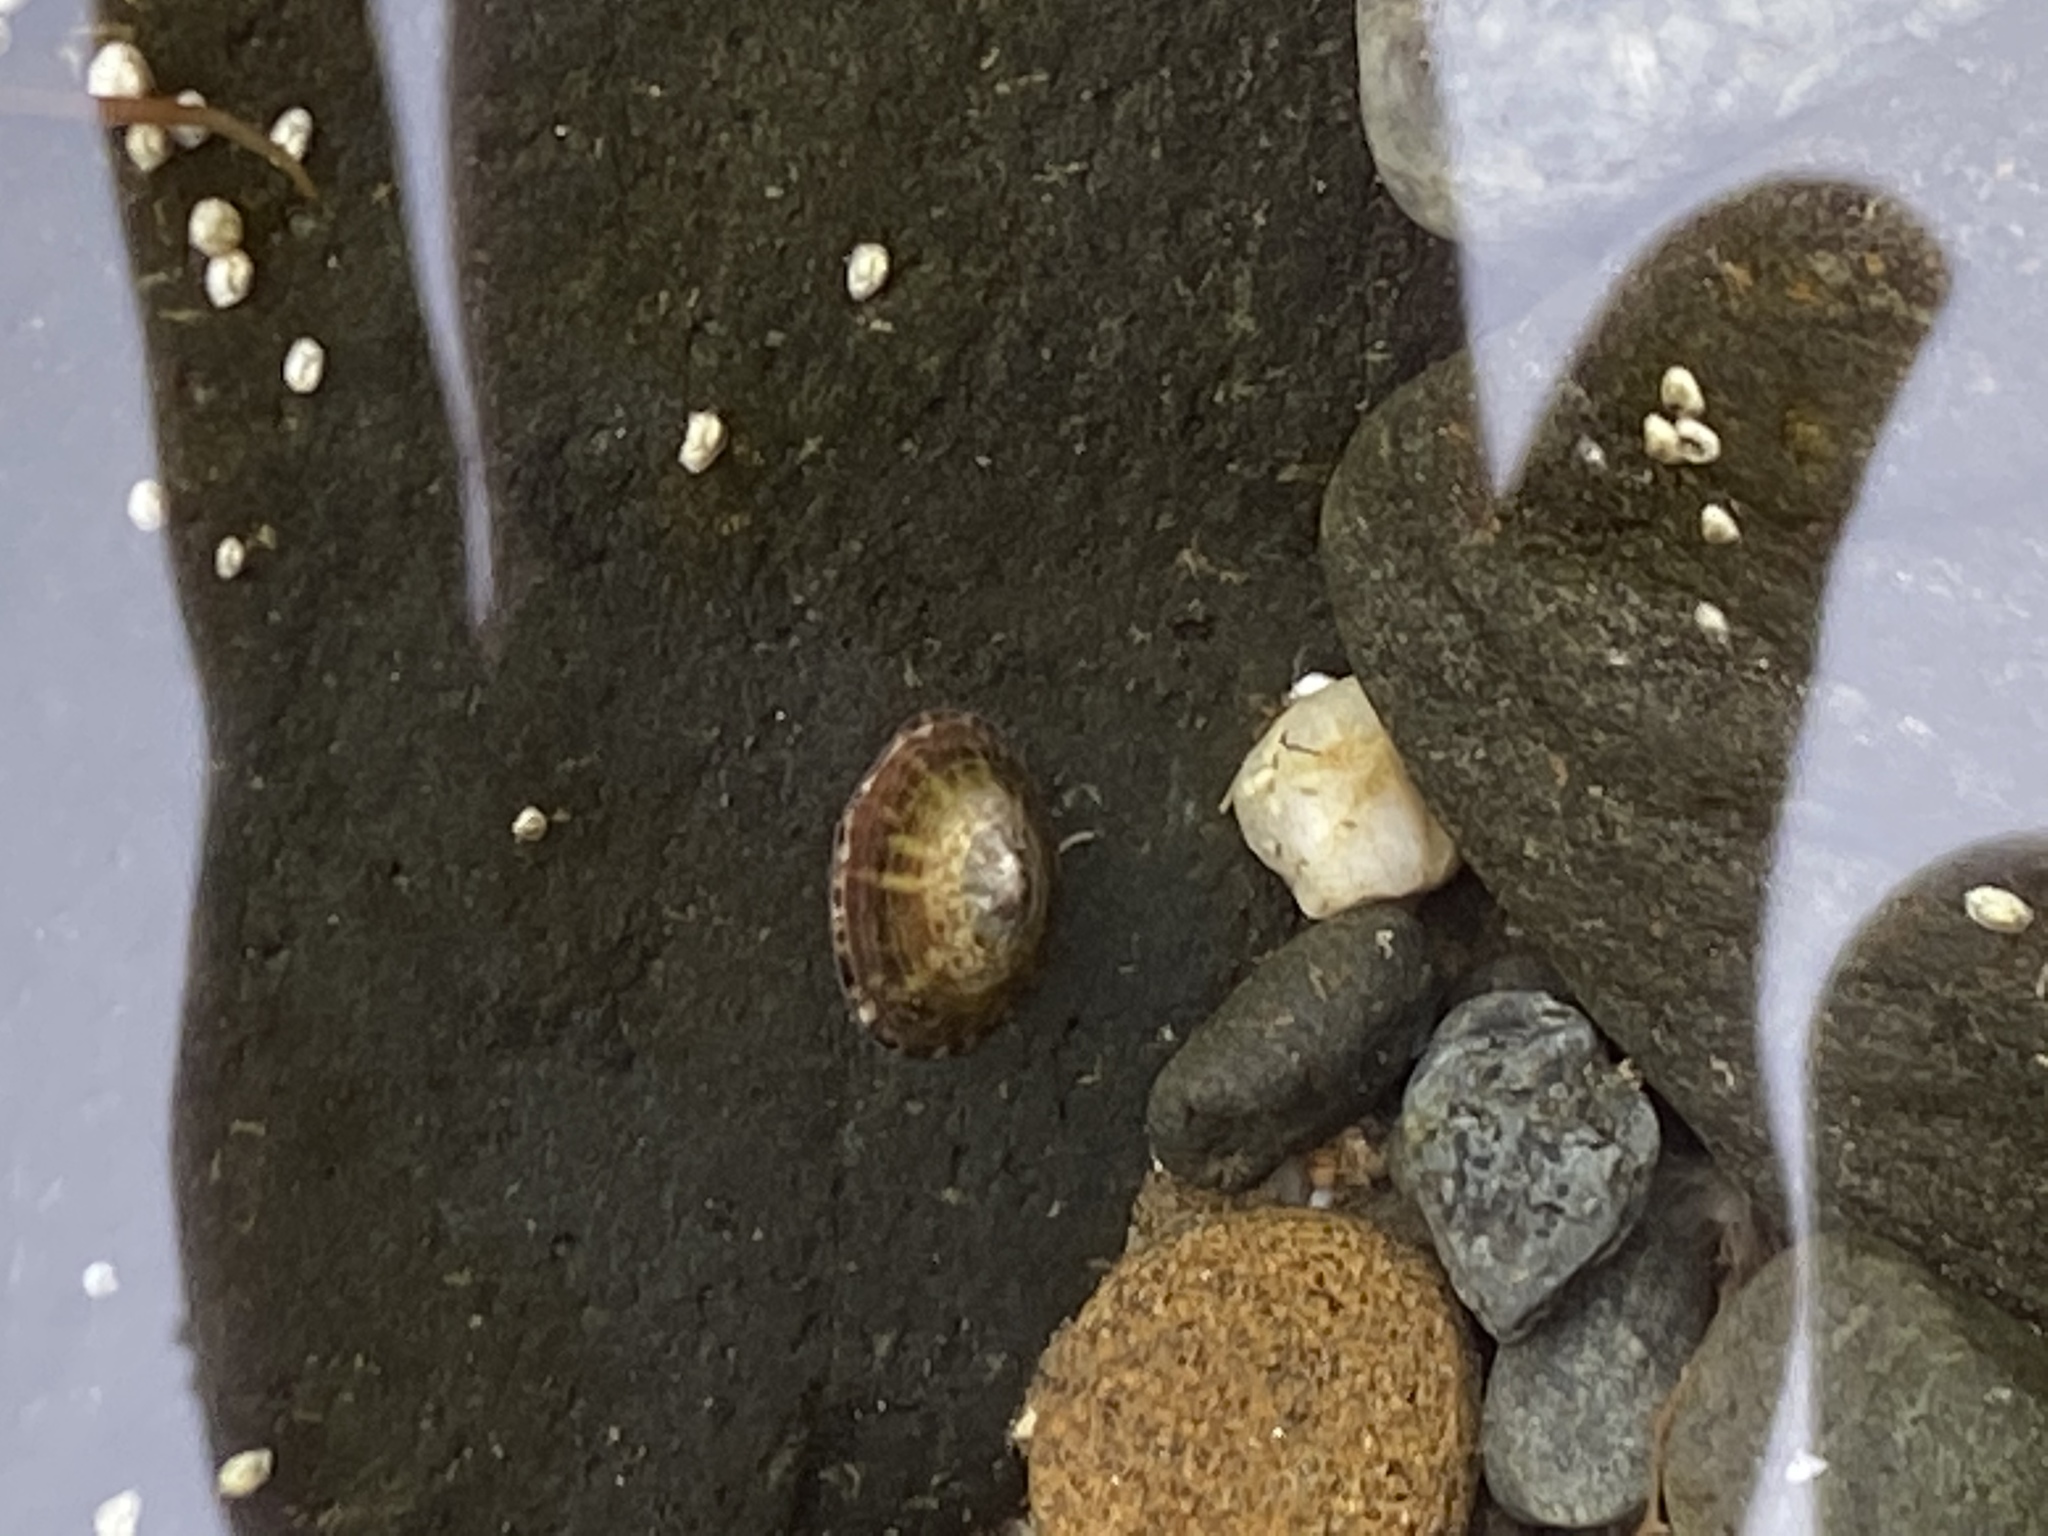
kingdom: Animalia
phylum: Mollusca
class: Gastropoda
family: Lottiidae
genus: Testudinalia
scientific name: Testudinalia testudinalis
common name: Common tortoiseshell limpet
